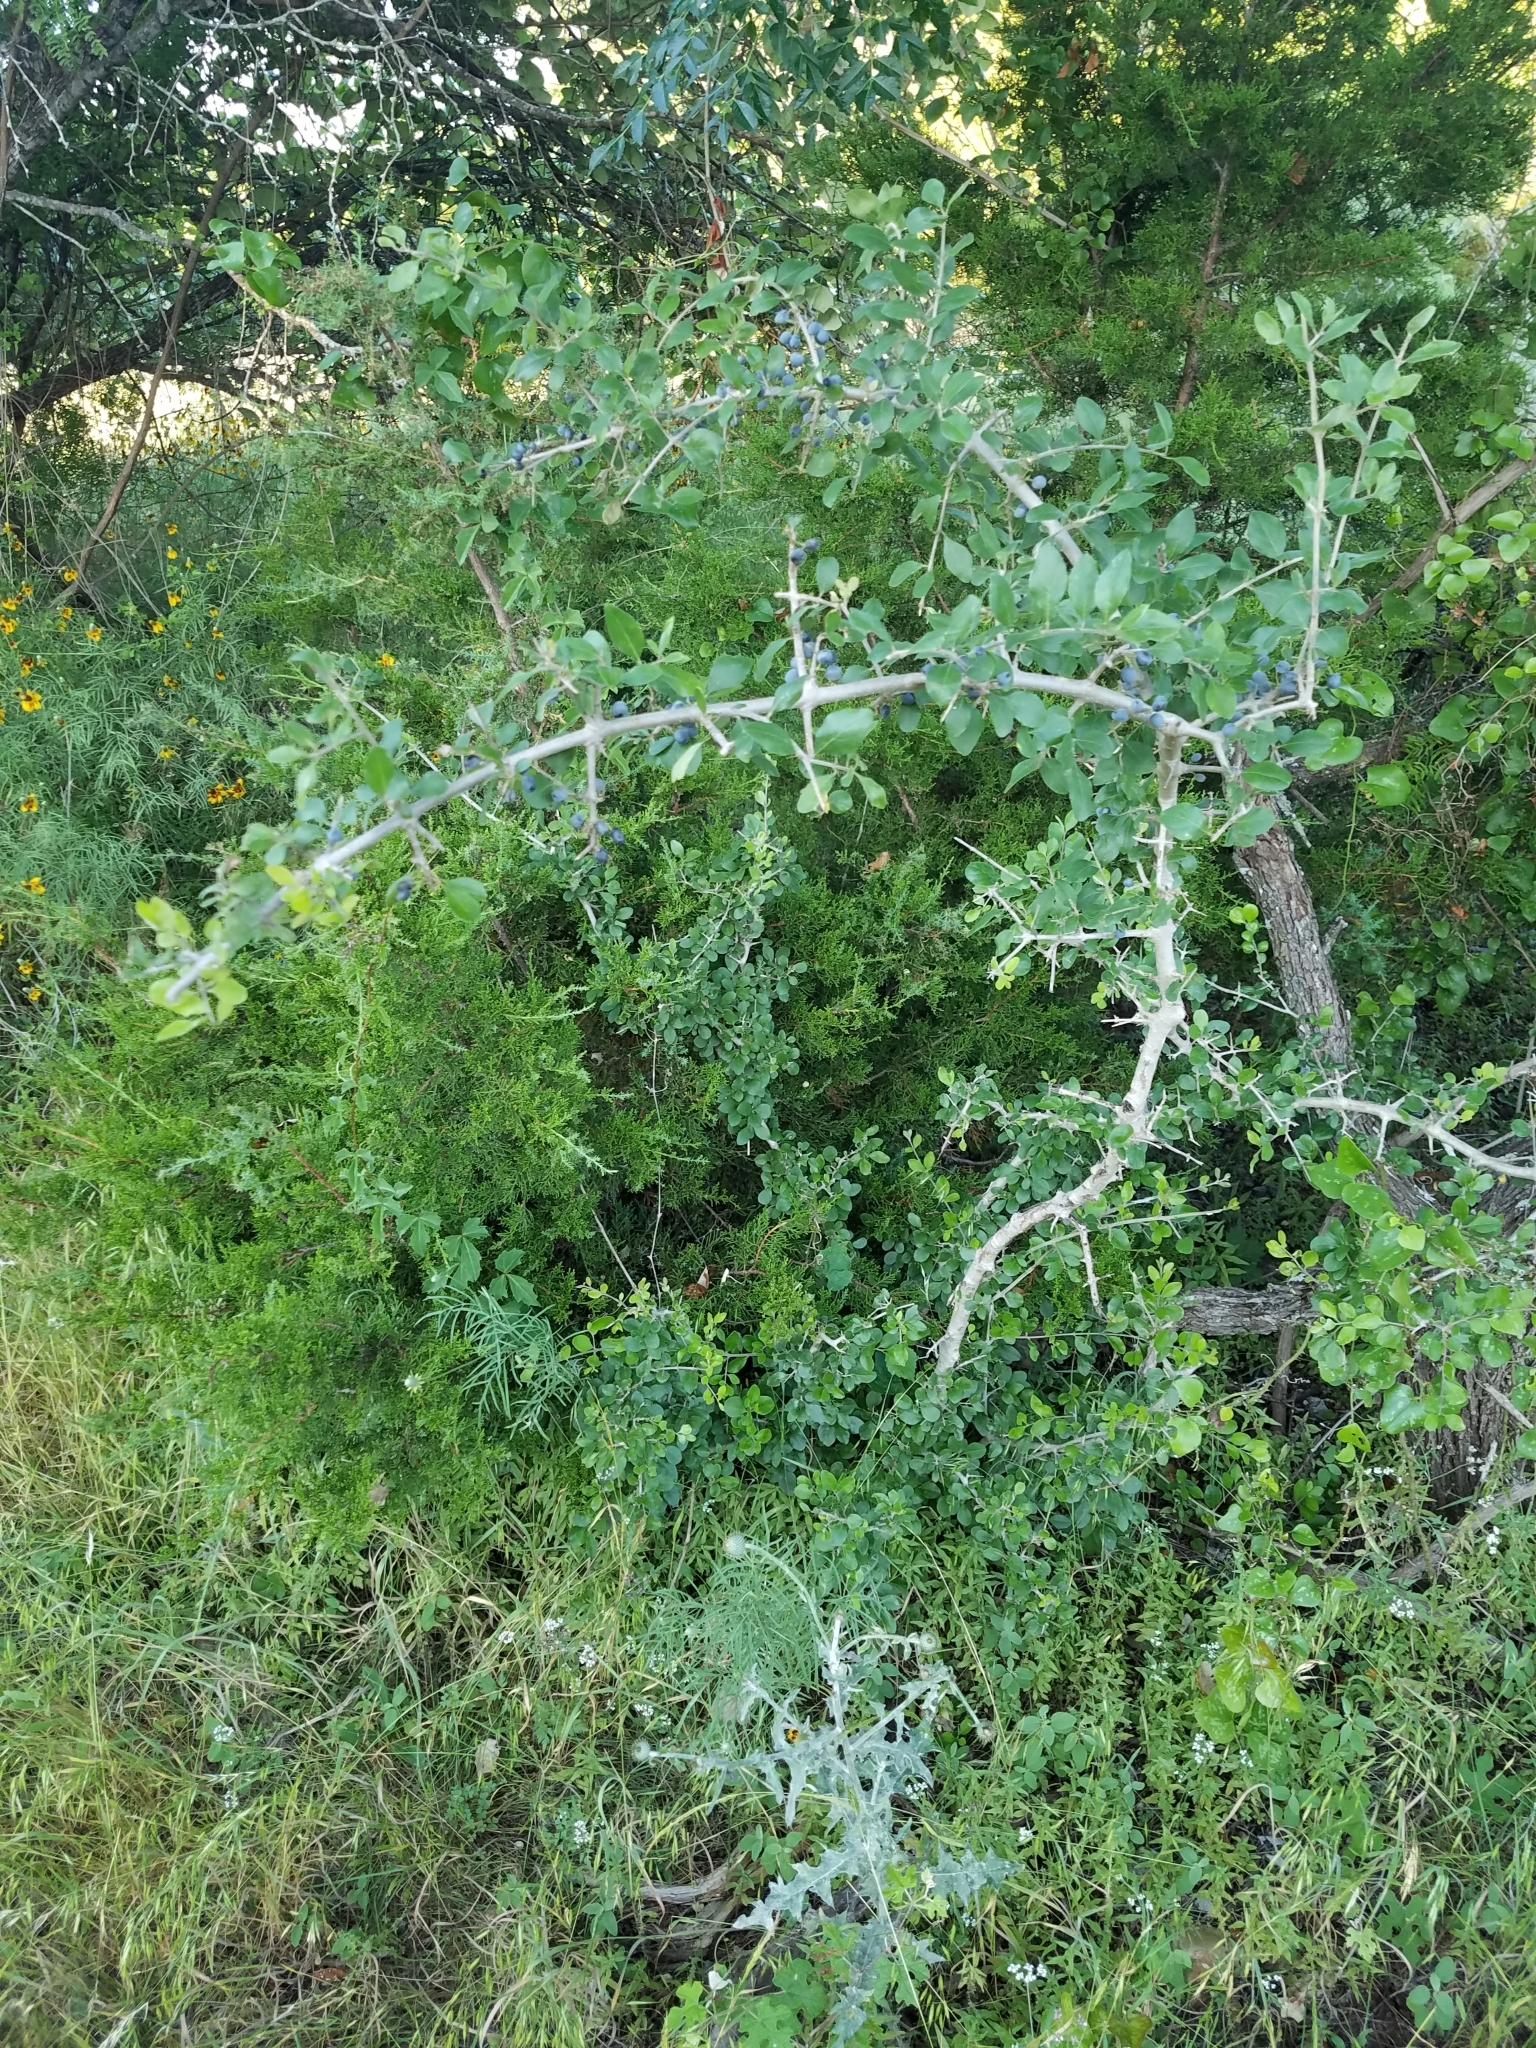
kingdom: Plantae
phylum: Tracheophyta
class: Magnoliopsida
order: Lamiales
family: Oleaceae
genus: Forestiera
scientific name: Forestiera pubescens
